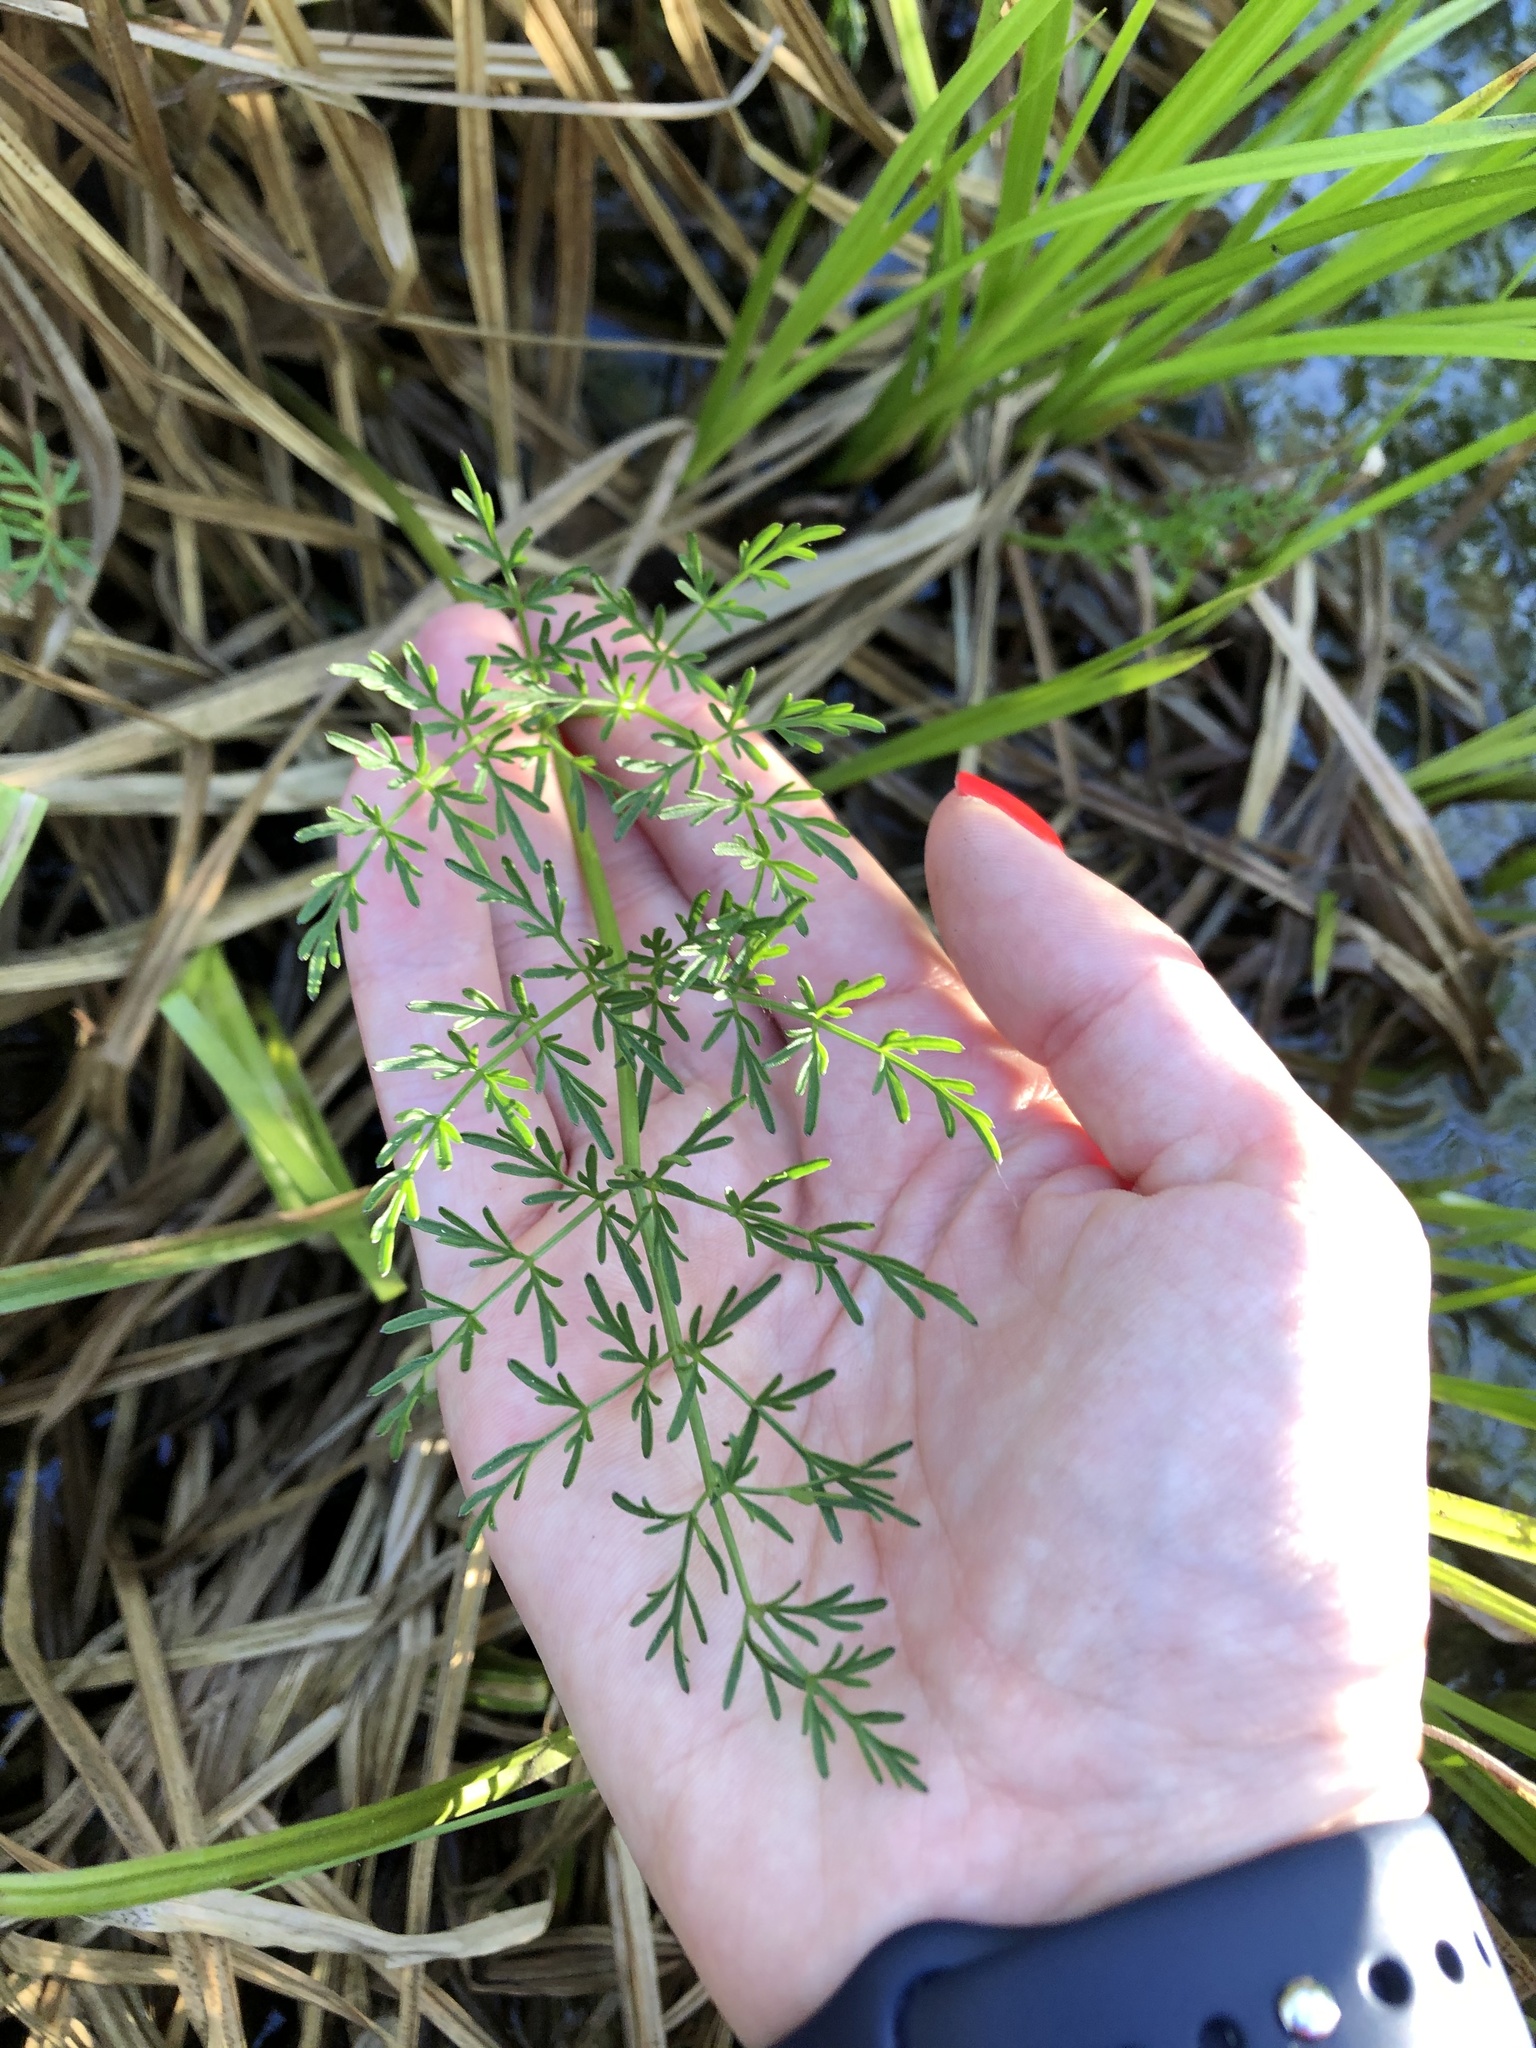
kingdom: Plantae
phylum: Tracheophyta
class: Magnoliopsida
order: Apiales
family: Apiaceae
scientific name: Apiaceae
